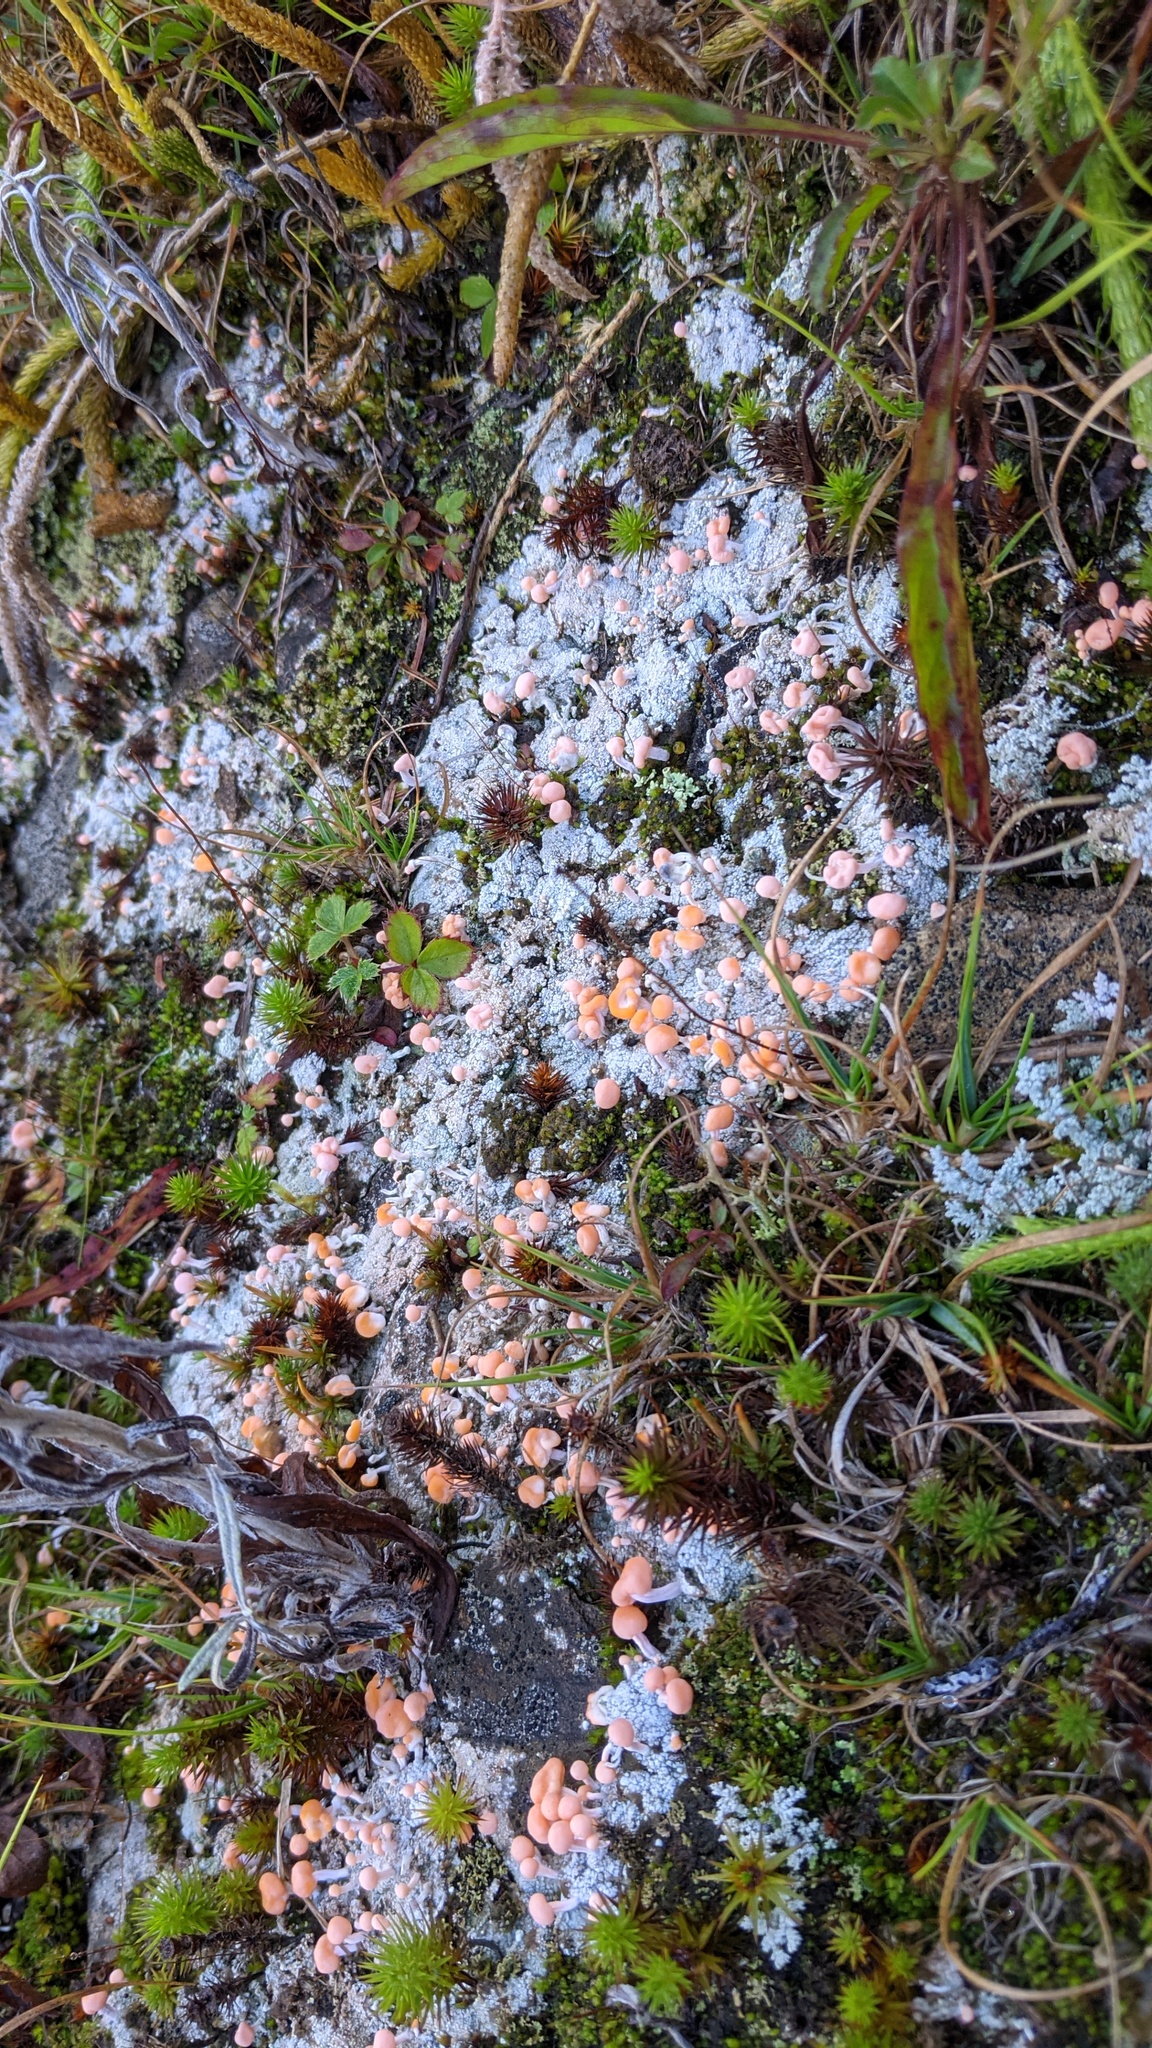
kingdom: Fungi
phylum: Ascomycota
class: Lecanoromycetes
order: Pertusariales
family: Icmadophilaceae
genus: Dibaeis
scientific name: Dibaeis baeomyces
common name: Pink earth lichen
